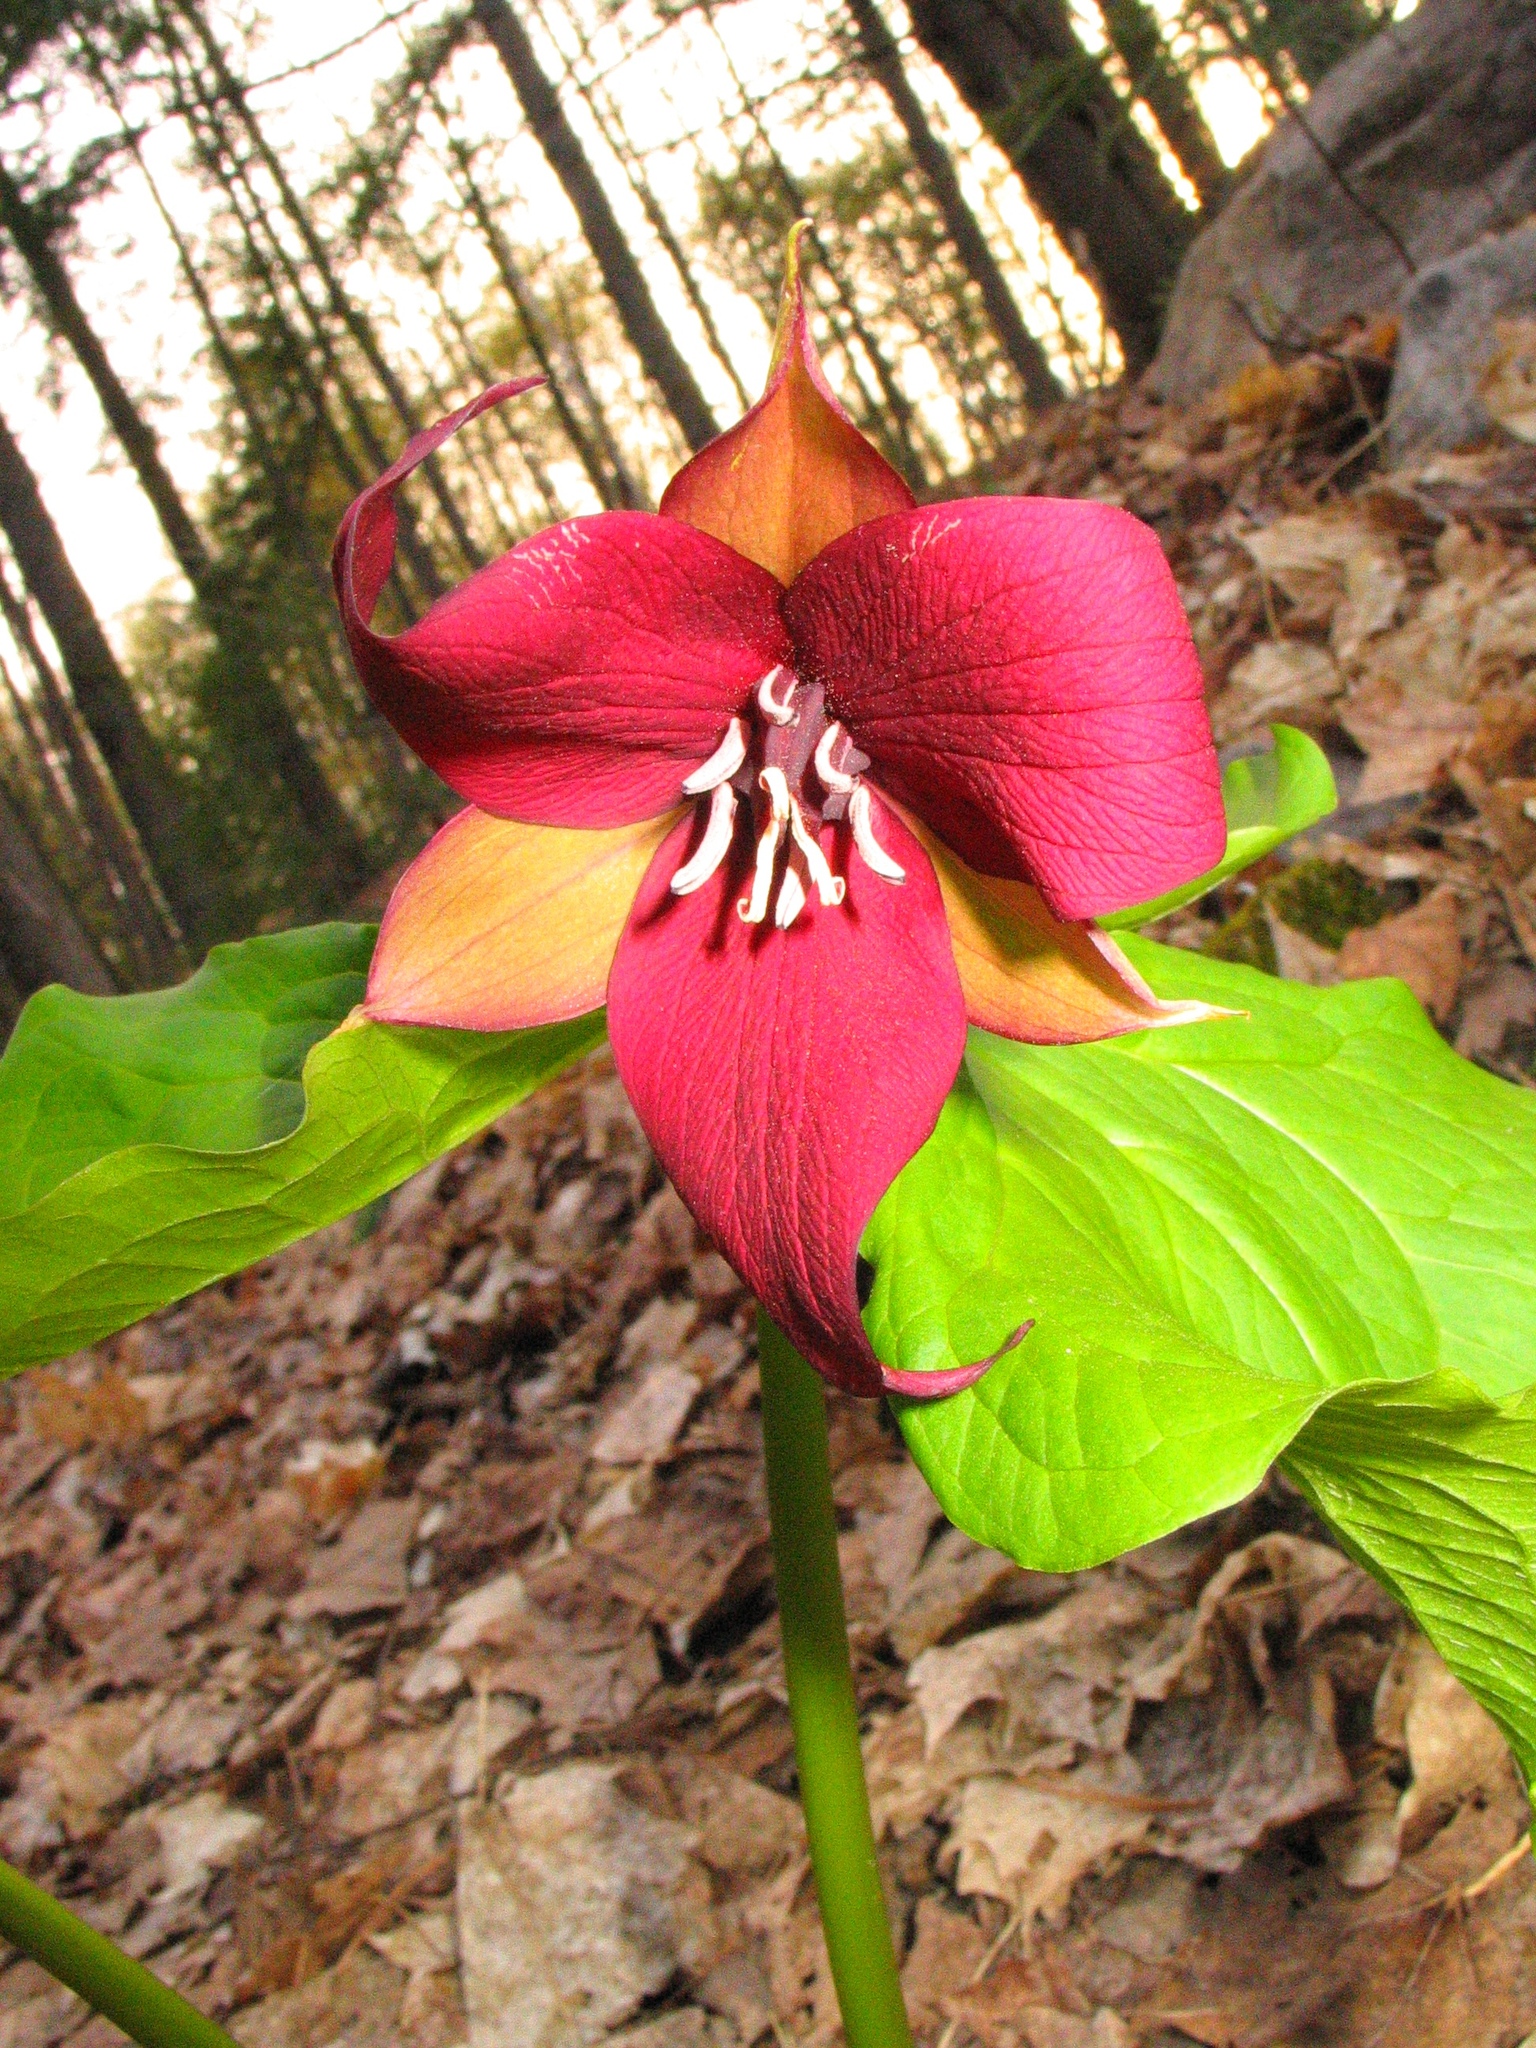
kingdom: Plantae
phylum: Tracheophyta
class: Liliopsida
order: Liliales
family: Melanthiaceae
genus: Trillium
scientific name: Trillium erectum
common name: Purple trillium
